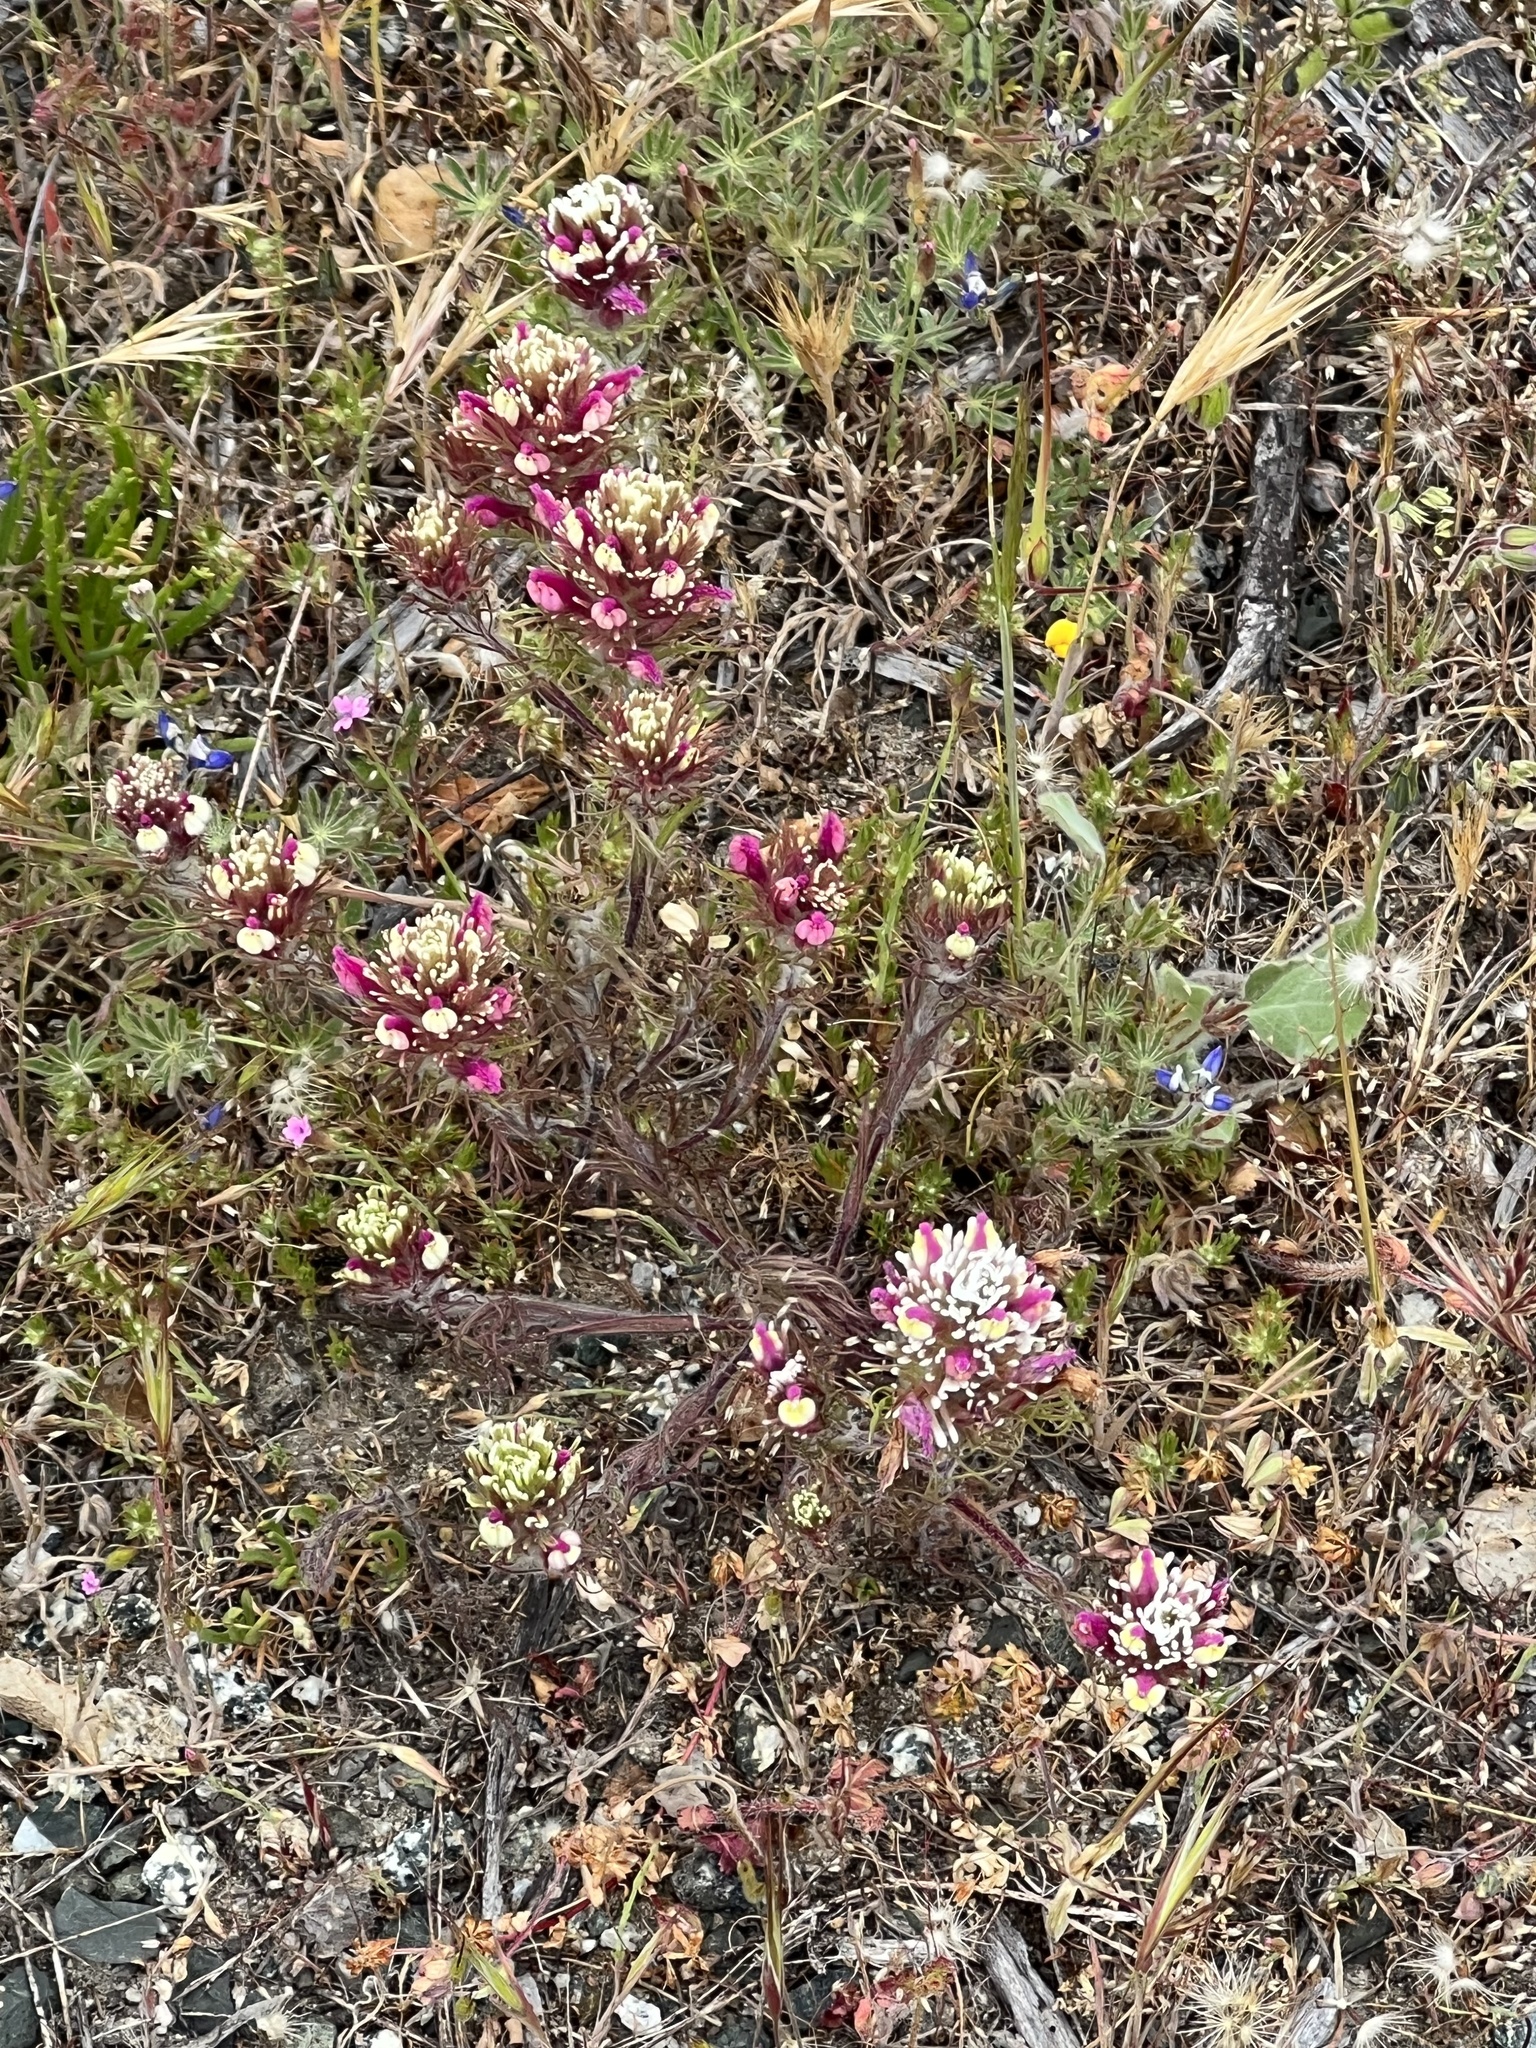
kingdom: Plantae
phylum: Tracheophyta
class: Magnoliopsida
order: Lamiales
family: Orobanchaceae
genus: Castilleja
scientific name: Castilleja exserta
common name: Purple owl-clover
